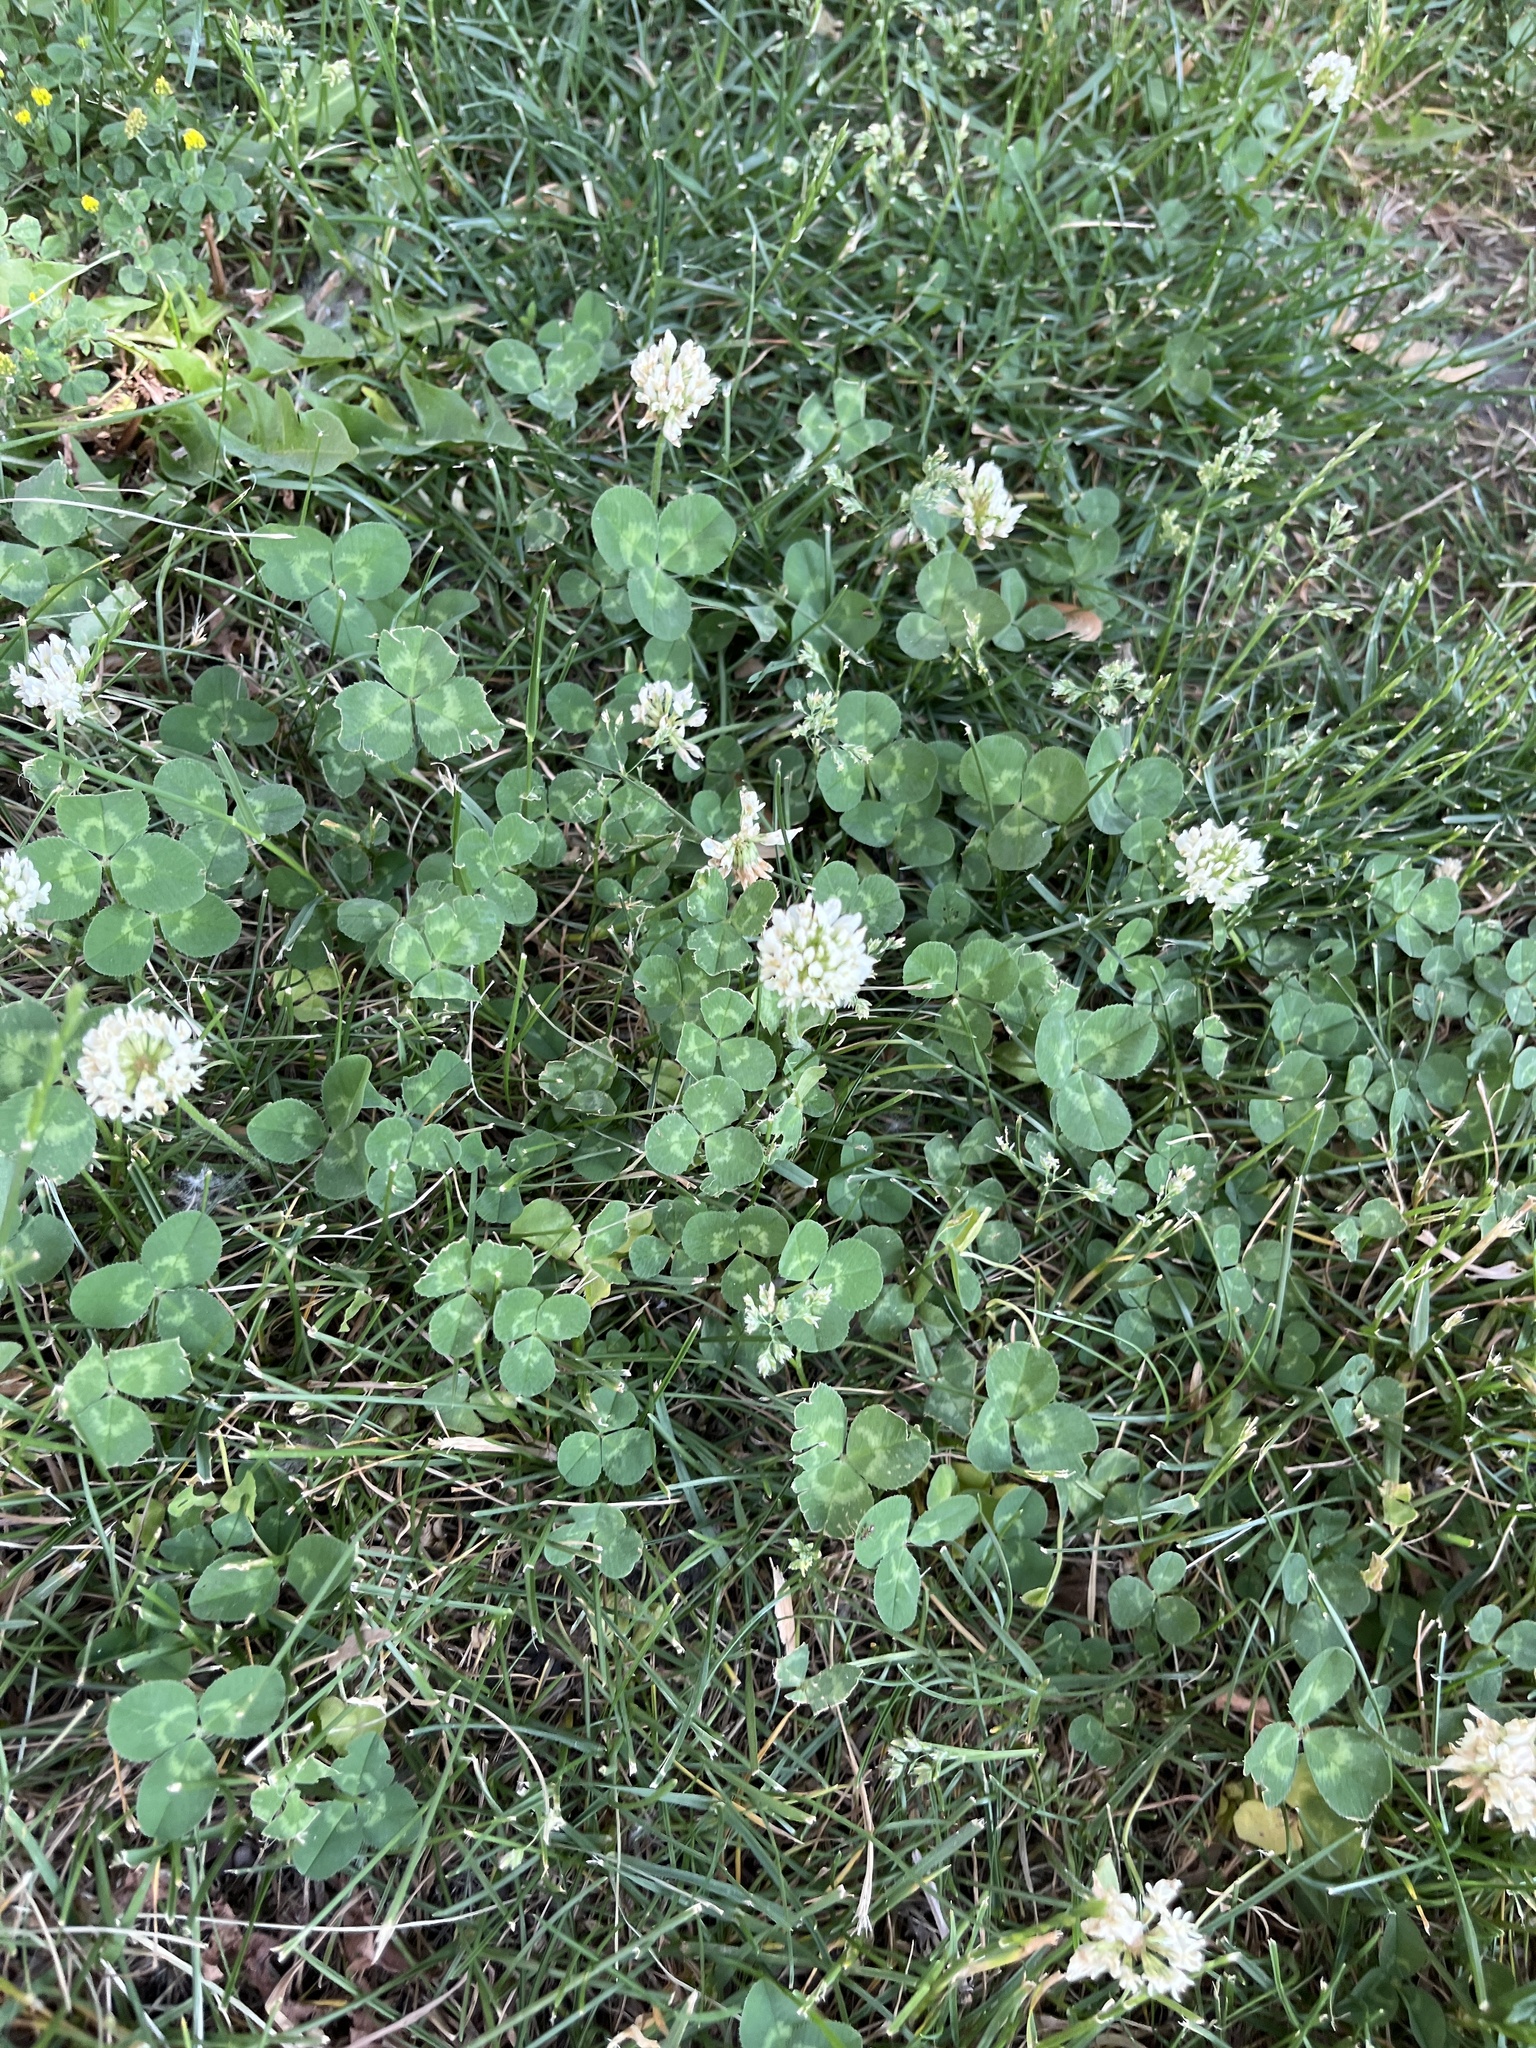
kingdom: Plantae
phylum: Tracheophyta
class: Magnoliopsida
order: Fabales
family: Fabaceae
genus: Trifolium
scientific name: Trifolium repens
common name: White clover
